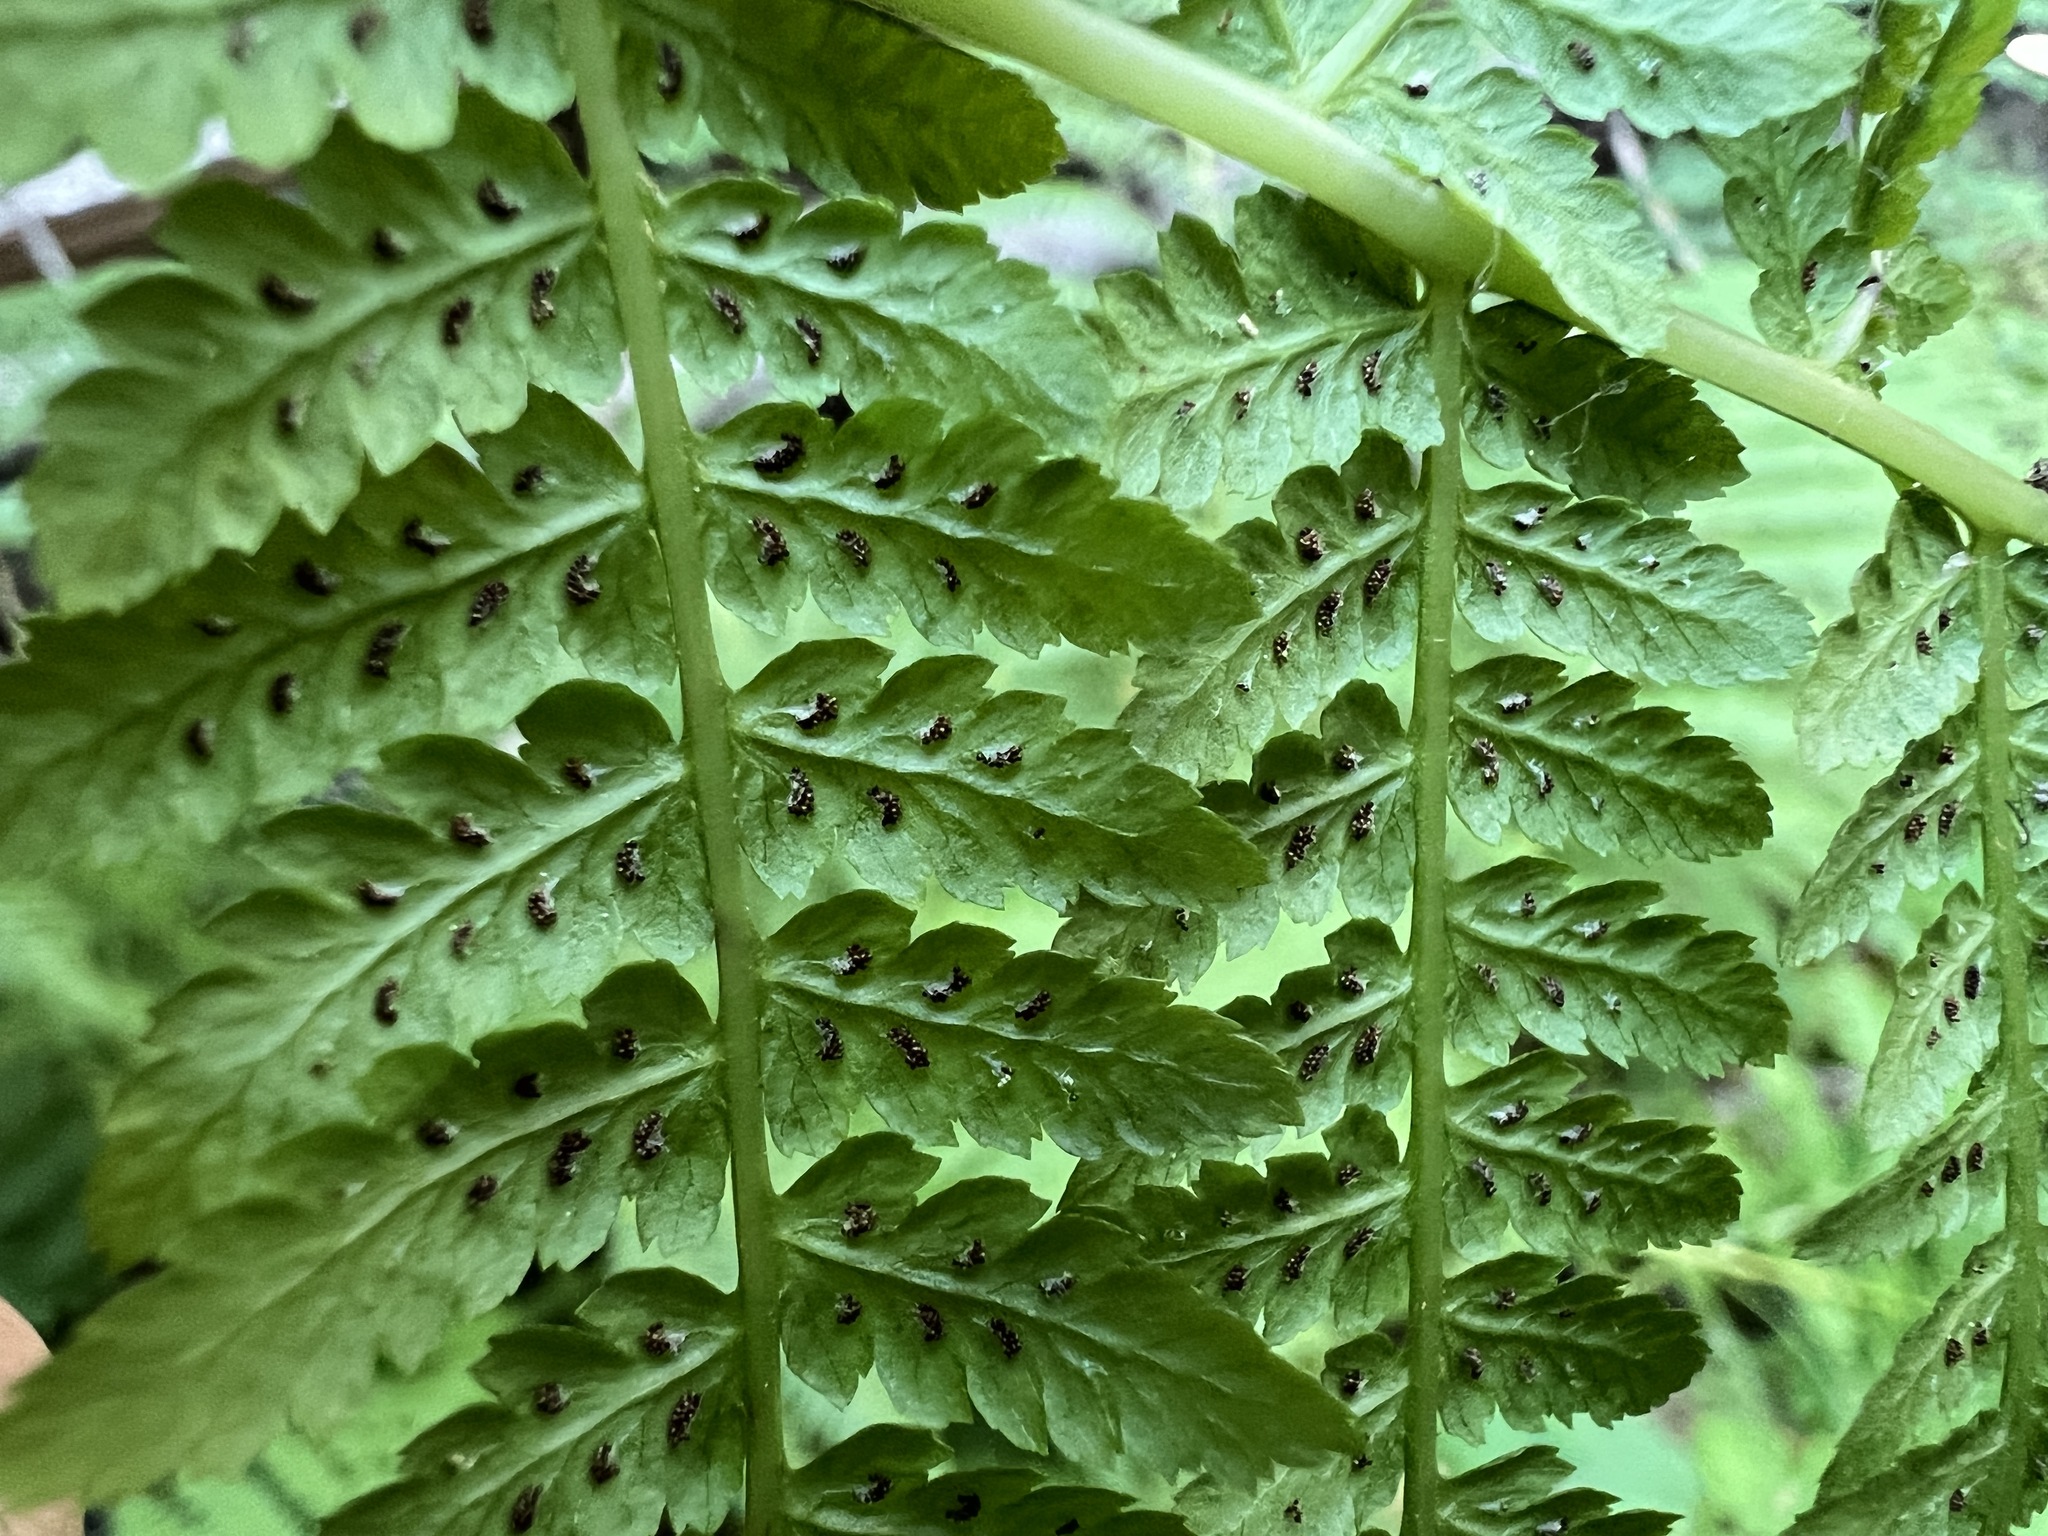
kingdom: Plantae
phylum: Tracheophyta
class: Polypodiopsida
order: Polypodiales
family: Athyriaceae
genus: Athyrium
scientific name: Athyrium filix-femina
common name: Lady fern
